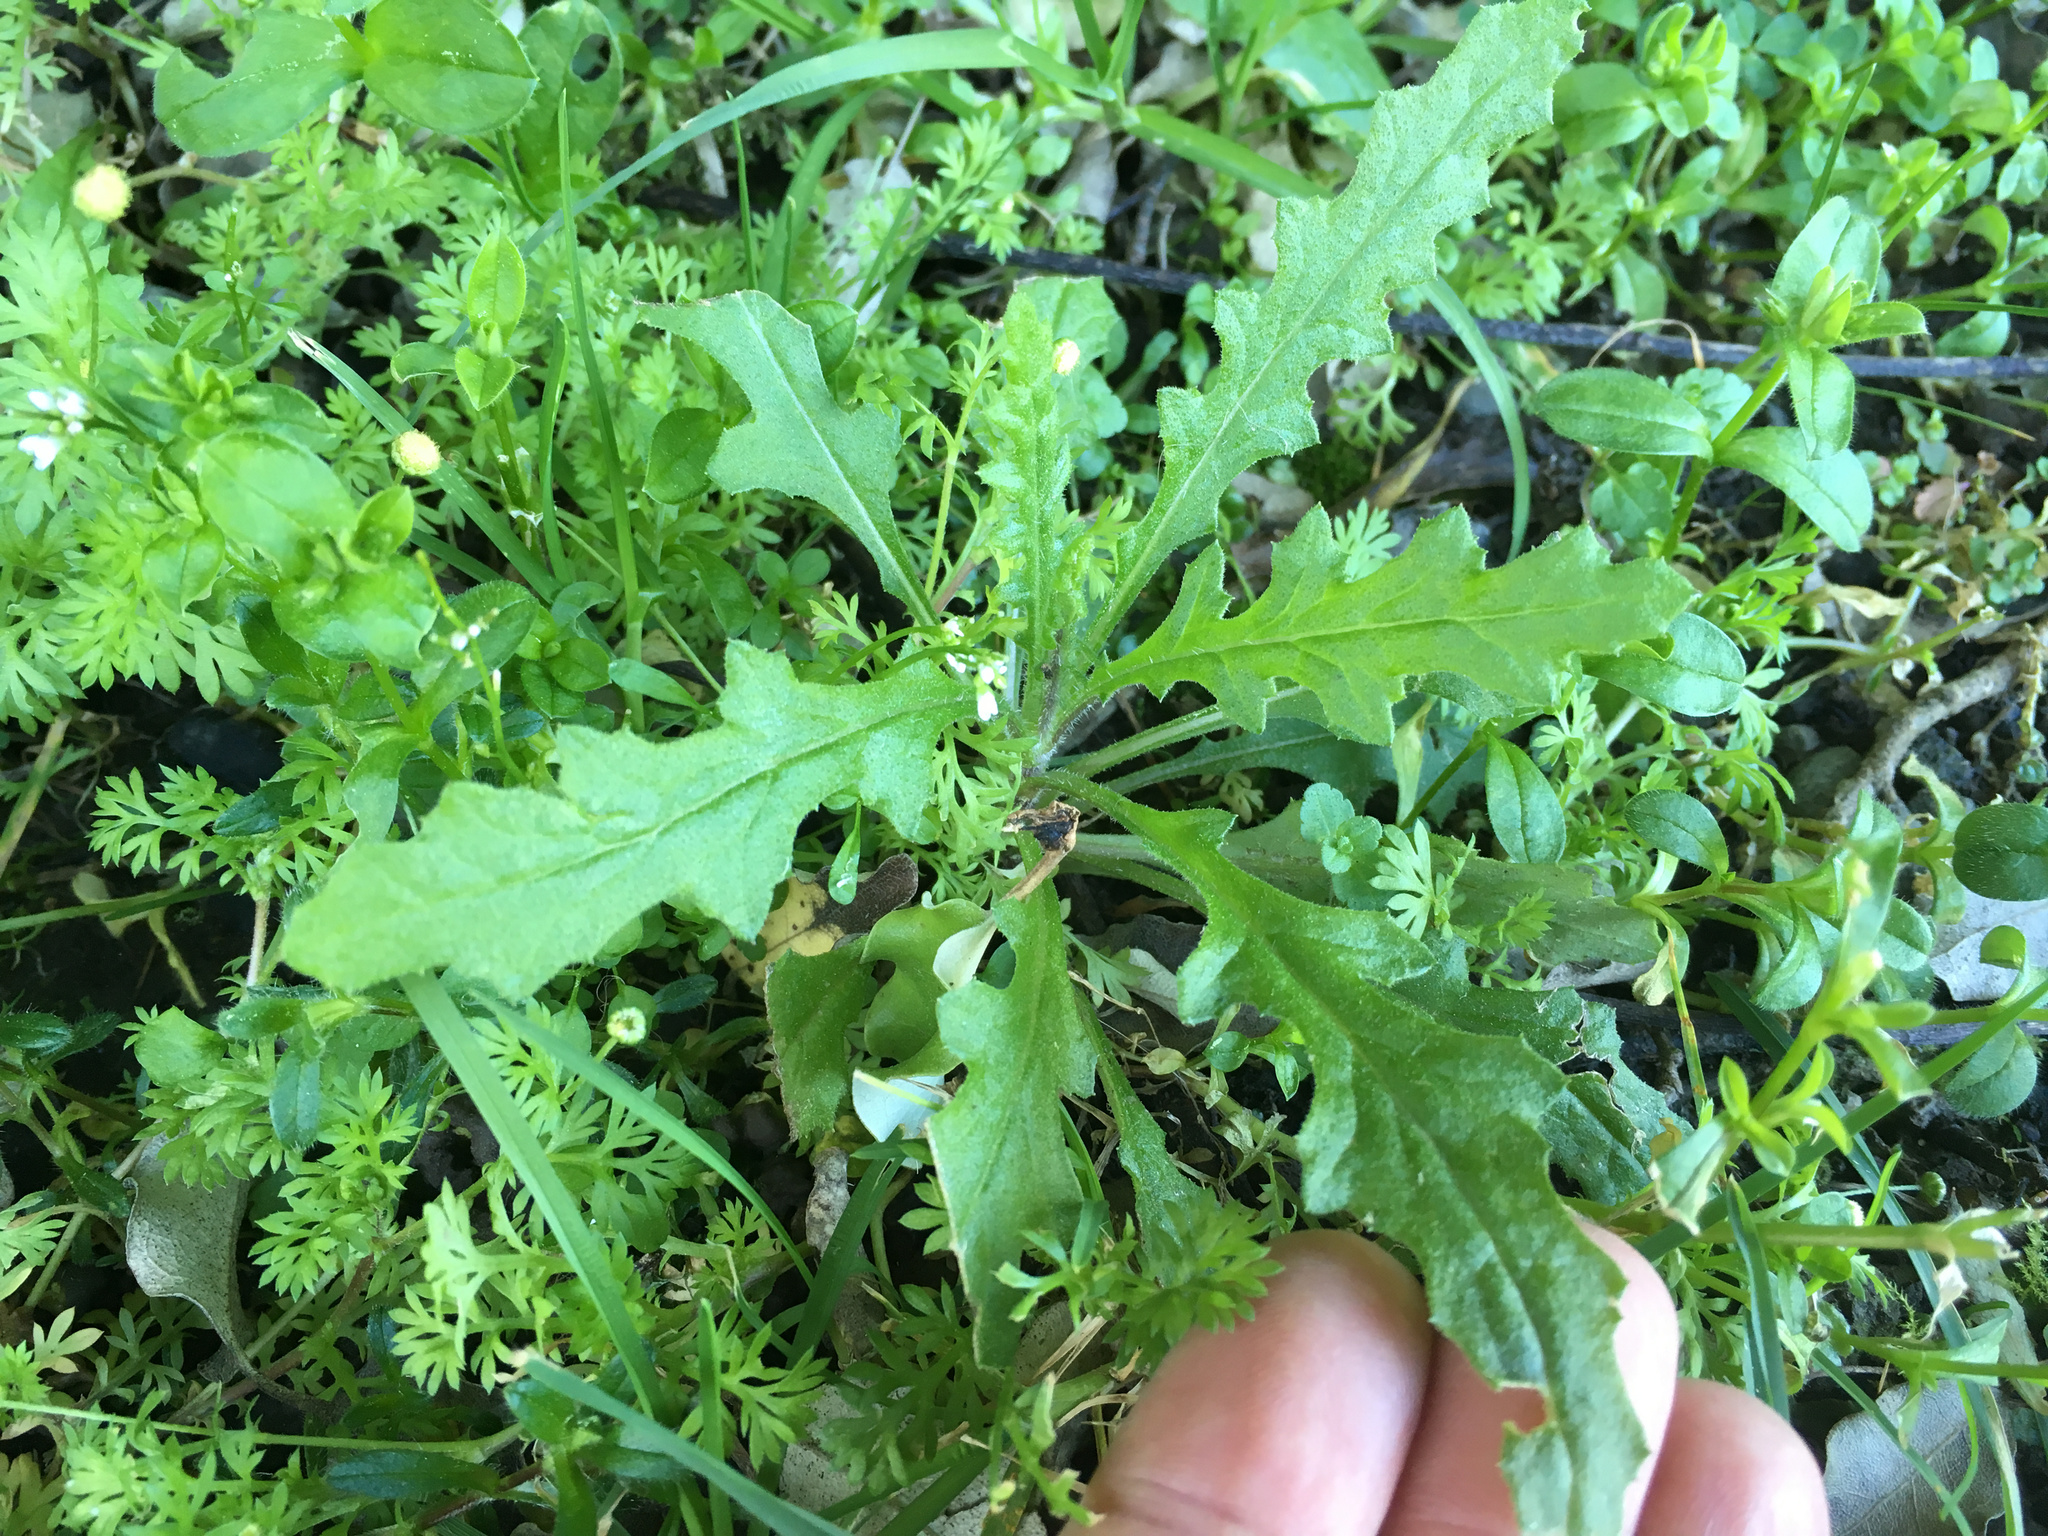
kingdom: Plantae
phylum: Tracheophyta
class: Magnoliopsida
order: Asterales
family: Asteraceae
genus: Senecio
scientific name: Senecio hispidulus
